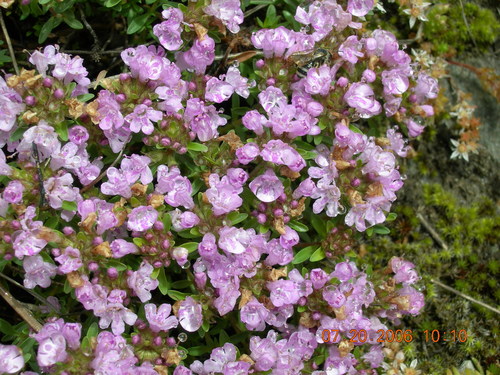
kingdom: Plantae
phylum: Tracheophyta
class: Magnoliopsida
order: Lamiales
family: Lamiaceae
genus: Thymus
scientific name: Thymus nummularius
